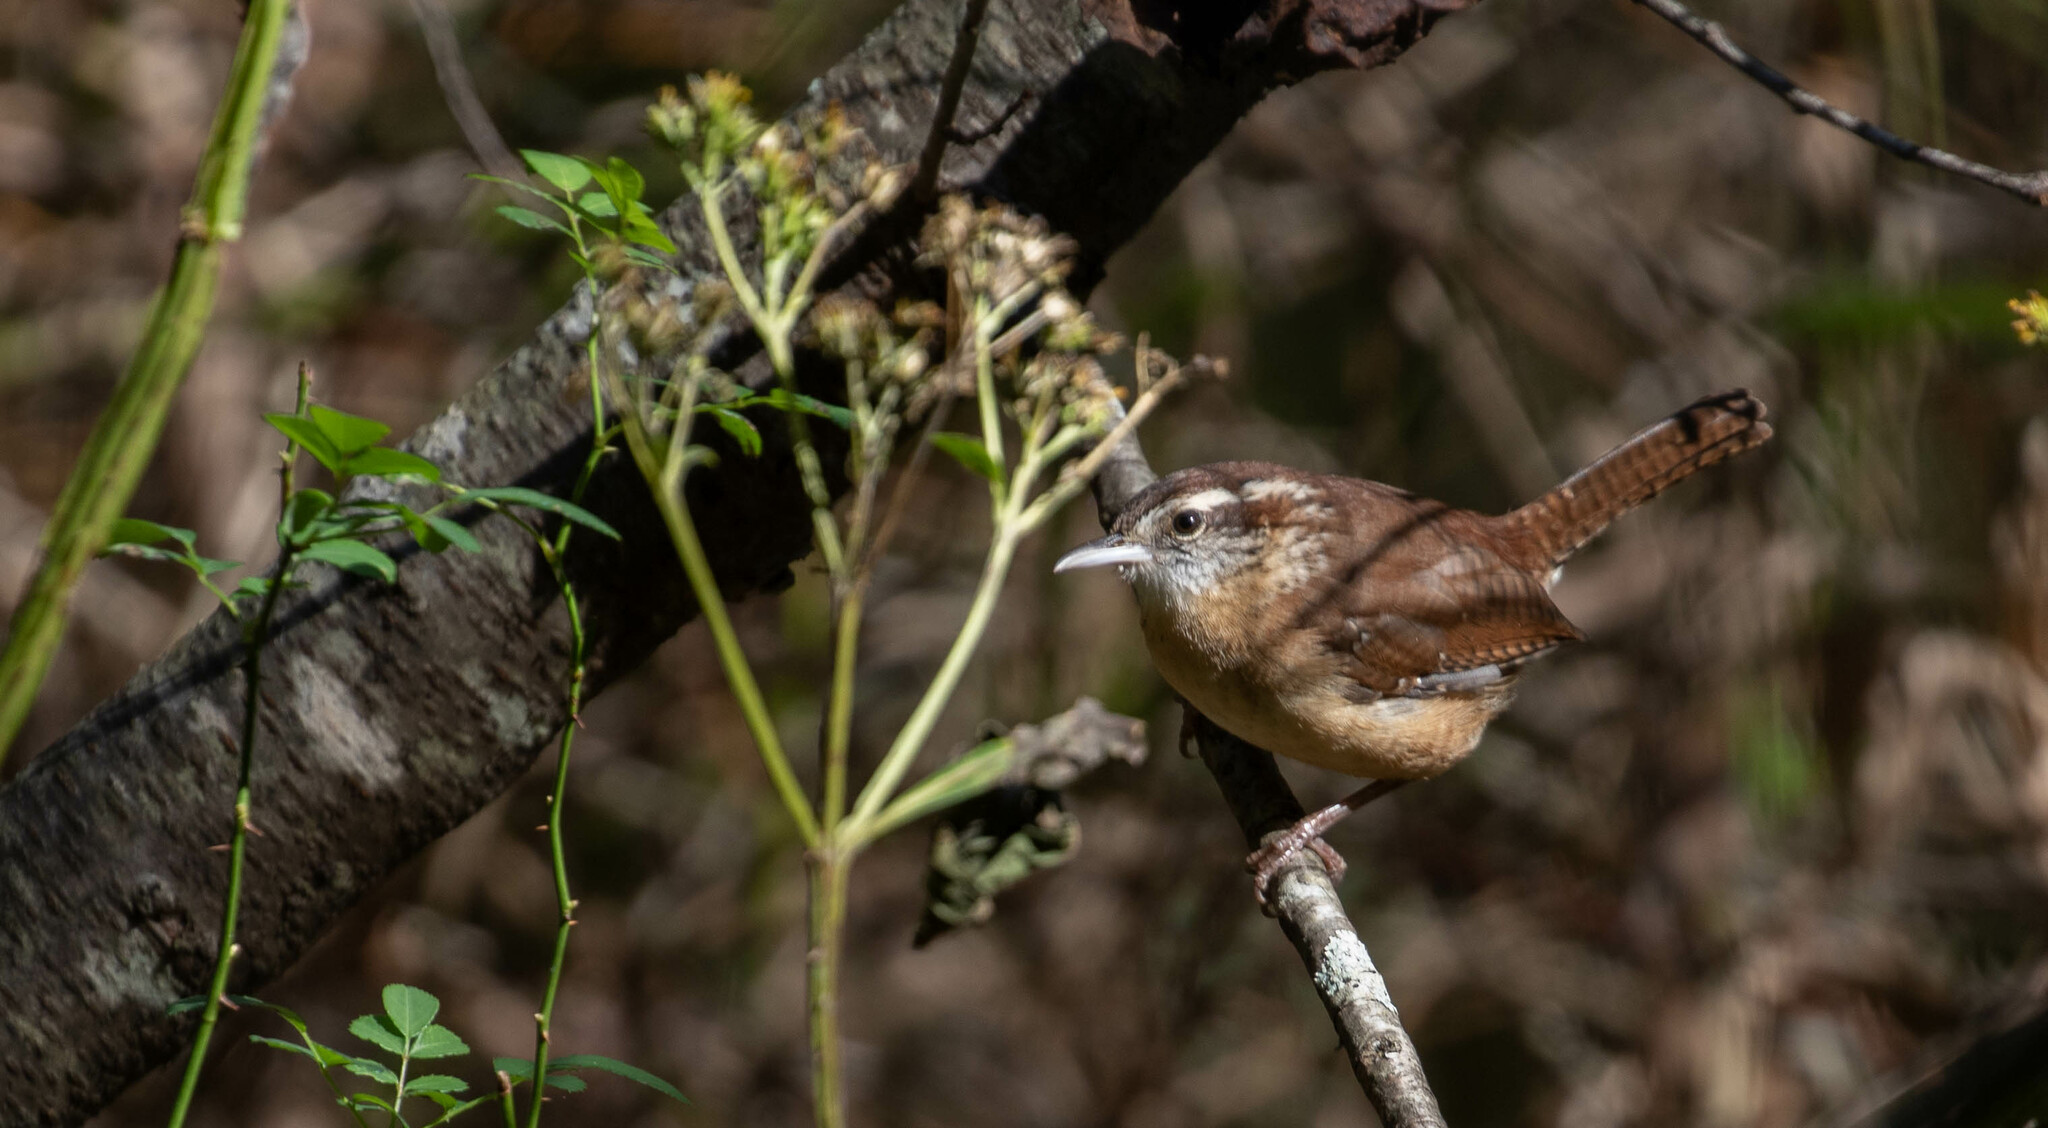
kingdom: Animalia
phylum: Chordata
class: Aves
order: Passeriformes
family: Troglodytidae
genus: Thryothorus
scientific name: Thryothorus ludovicianus
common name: Carolina wren
